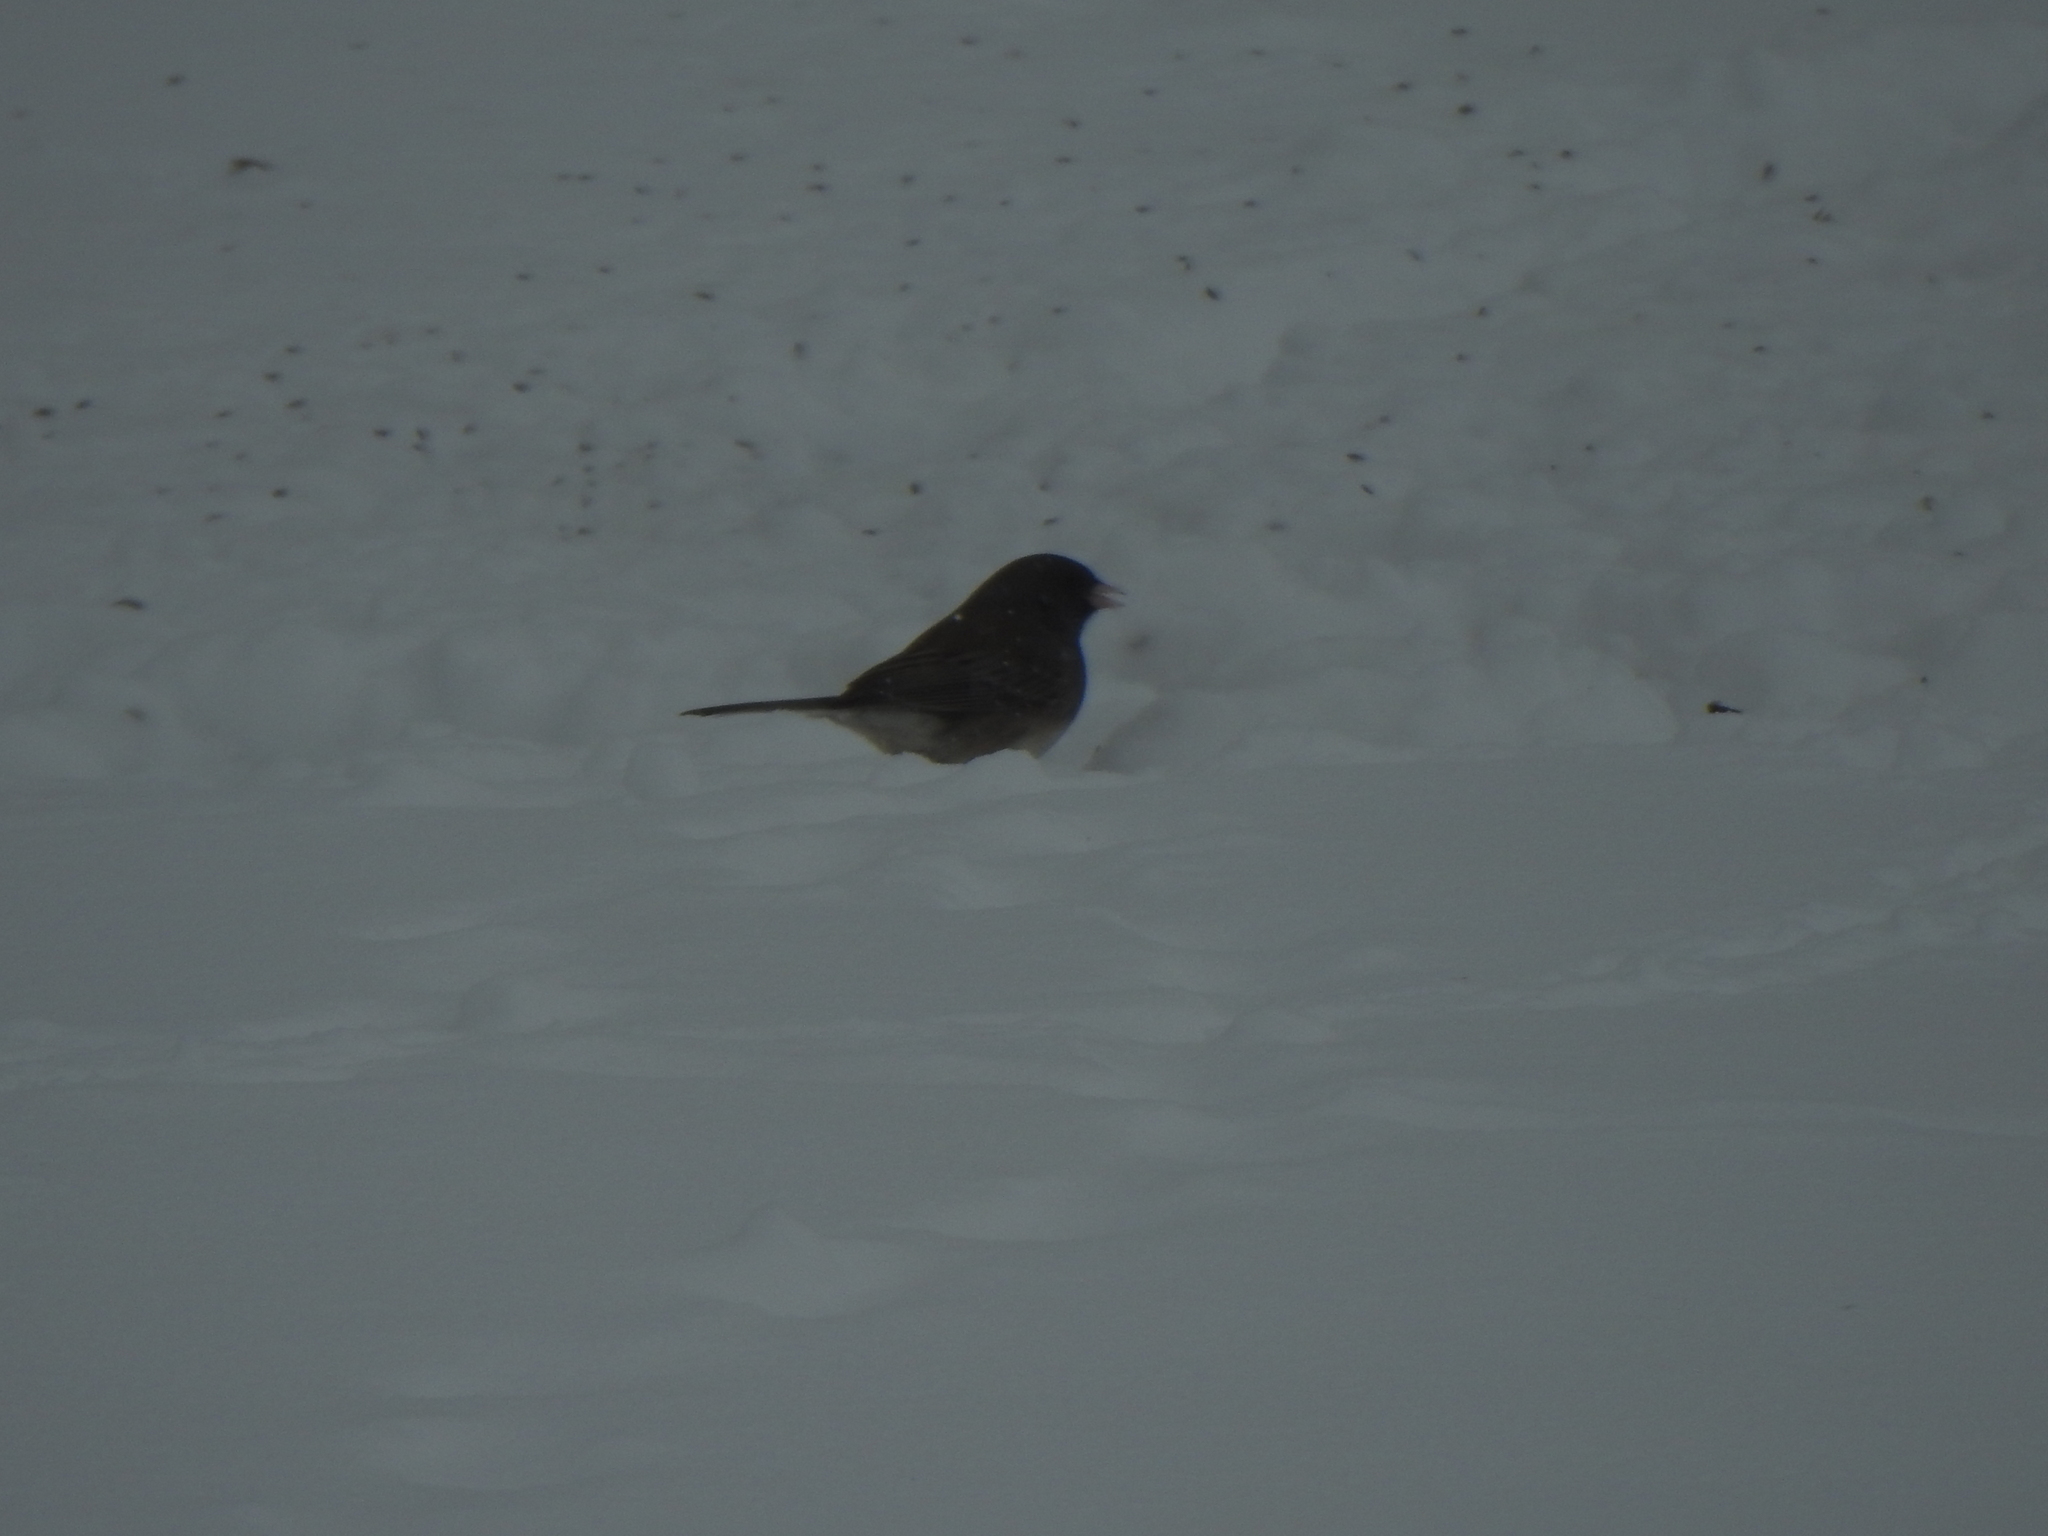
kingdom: Animalia
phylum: Chordata
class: Aves
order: Passeriformes
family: Passerellidae
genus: Junco
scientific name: Junco hyemalis
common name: Dark-eyed junco
